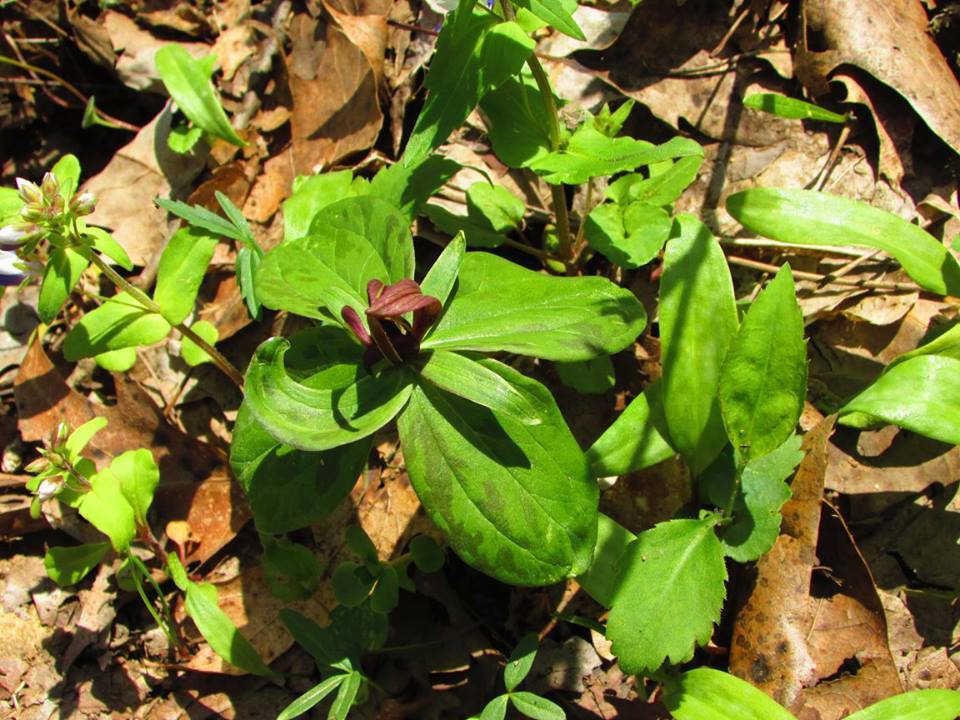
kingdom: Plantae
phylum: Tracheophyta
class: Liliopsida
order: Liliales
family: Melanthiaceae
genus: Trillium
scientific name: Trillium sessile
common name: Sessile trillium
